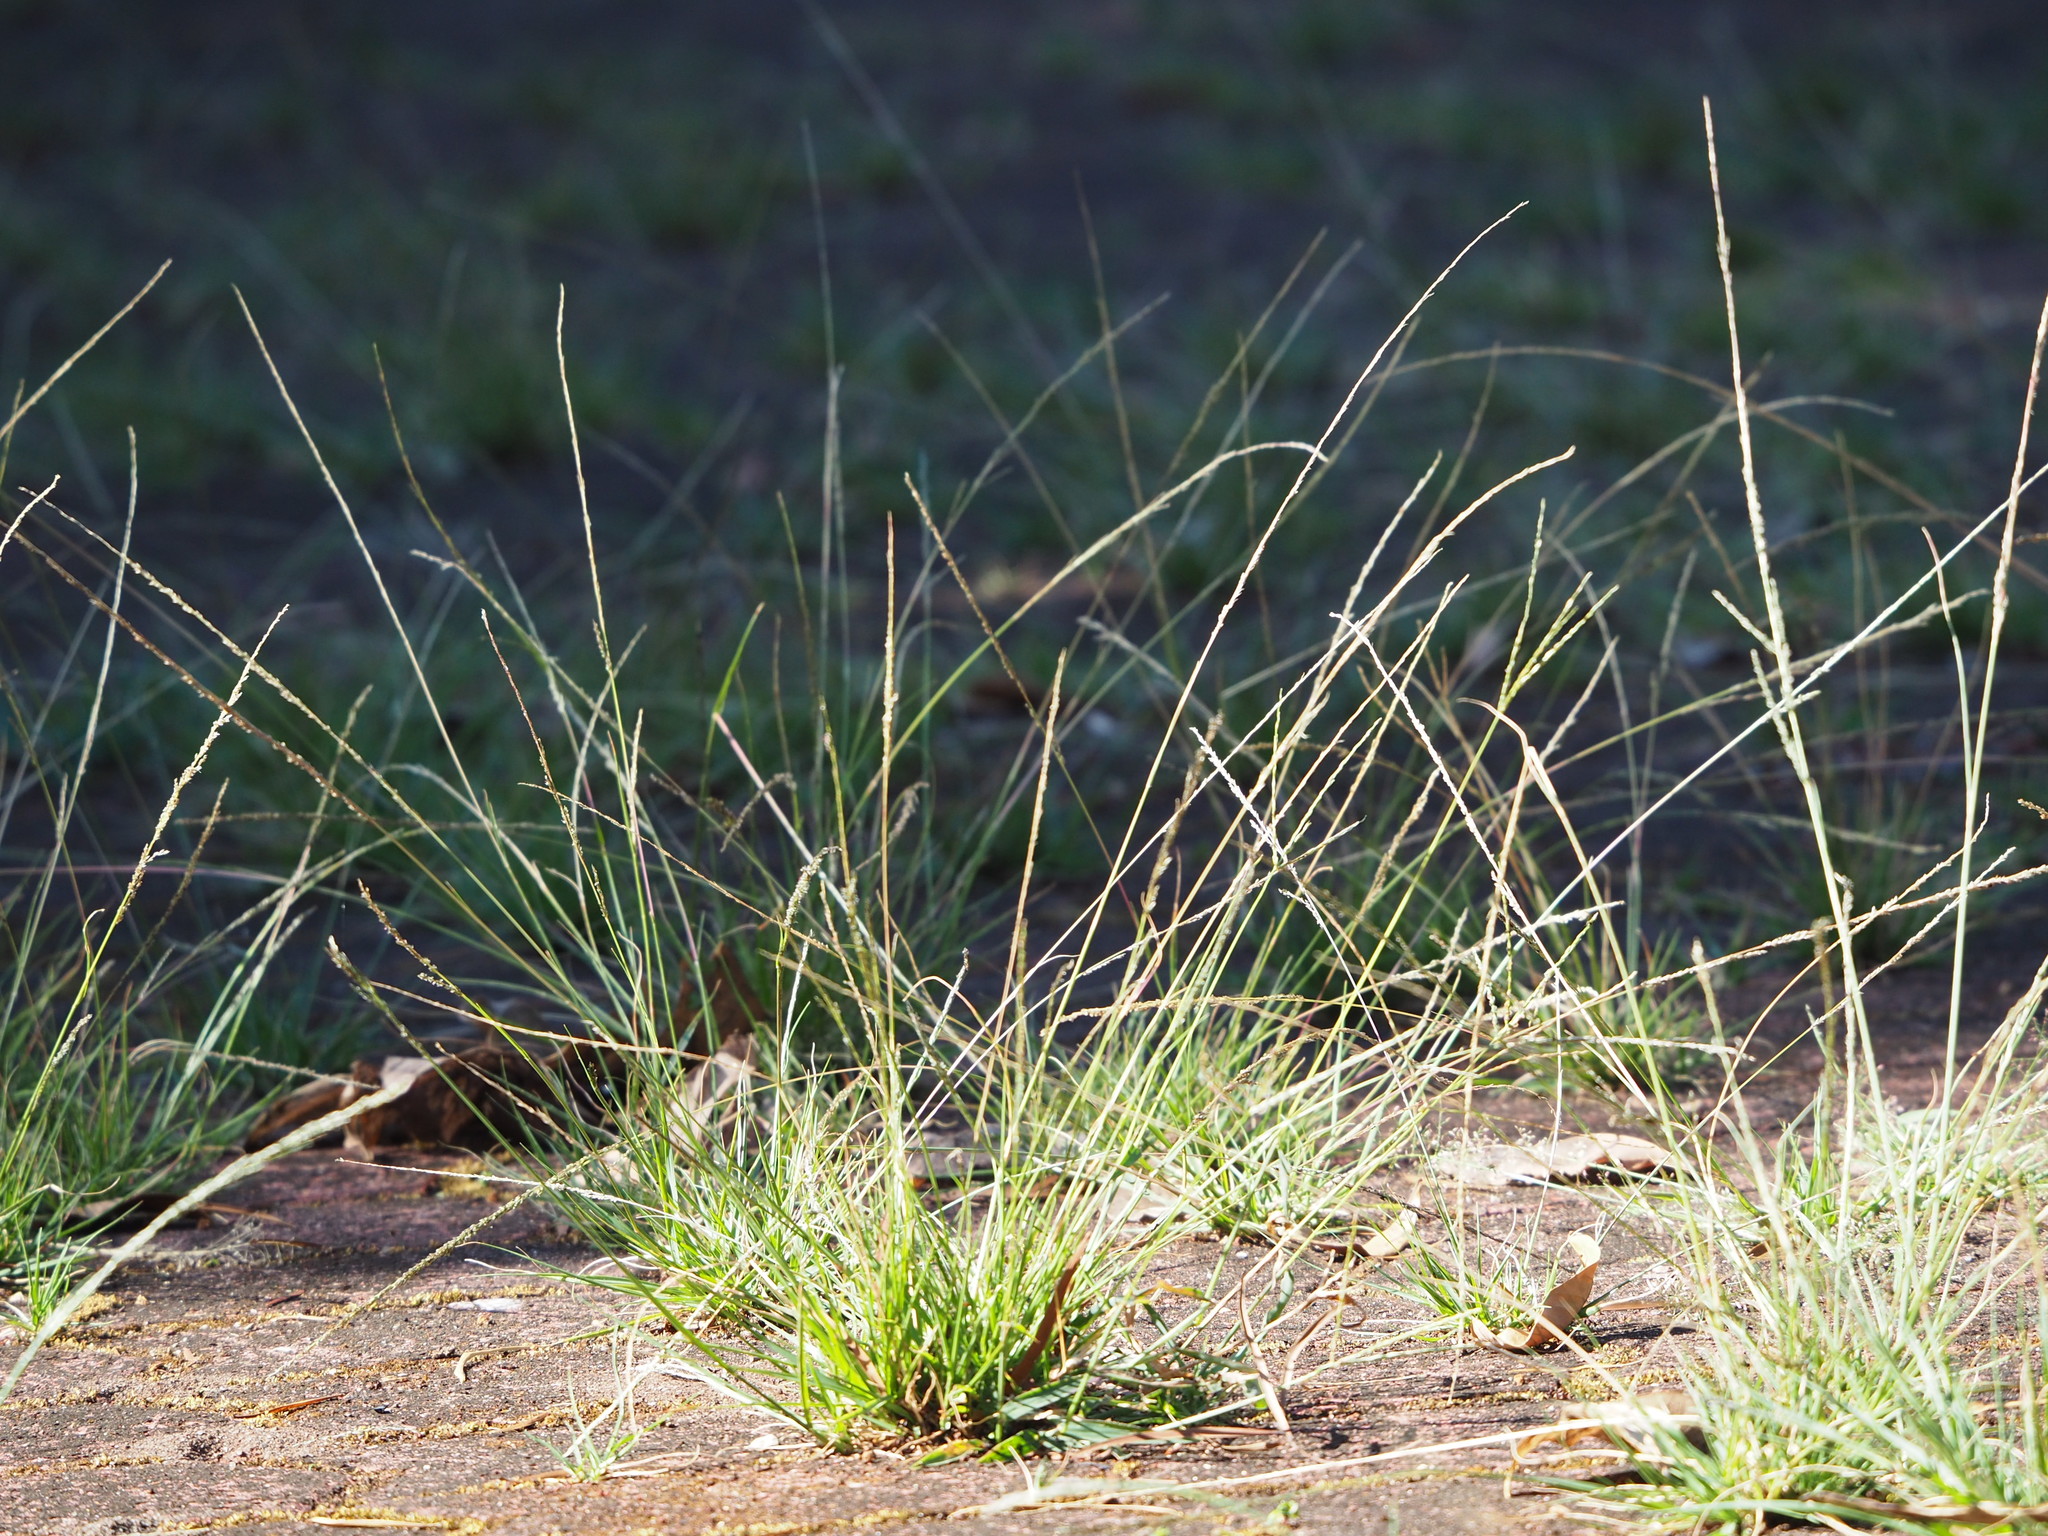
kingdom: Plantae
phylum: Tracheophyta
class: Liliopsida
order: Poales
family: Poaceae
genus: Sporobolus
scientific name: Sporobolus indicus
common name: Smut grass
